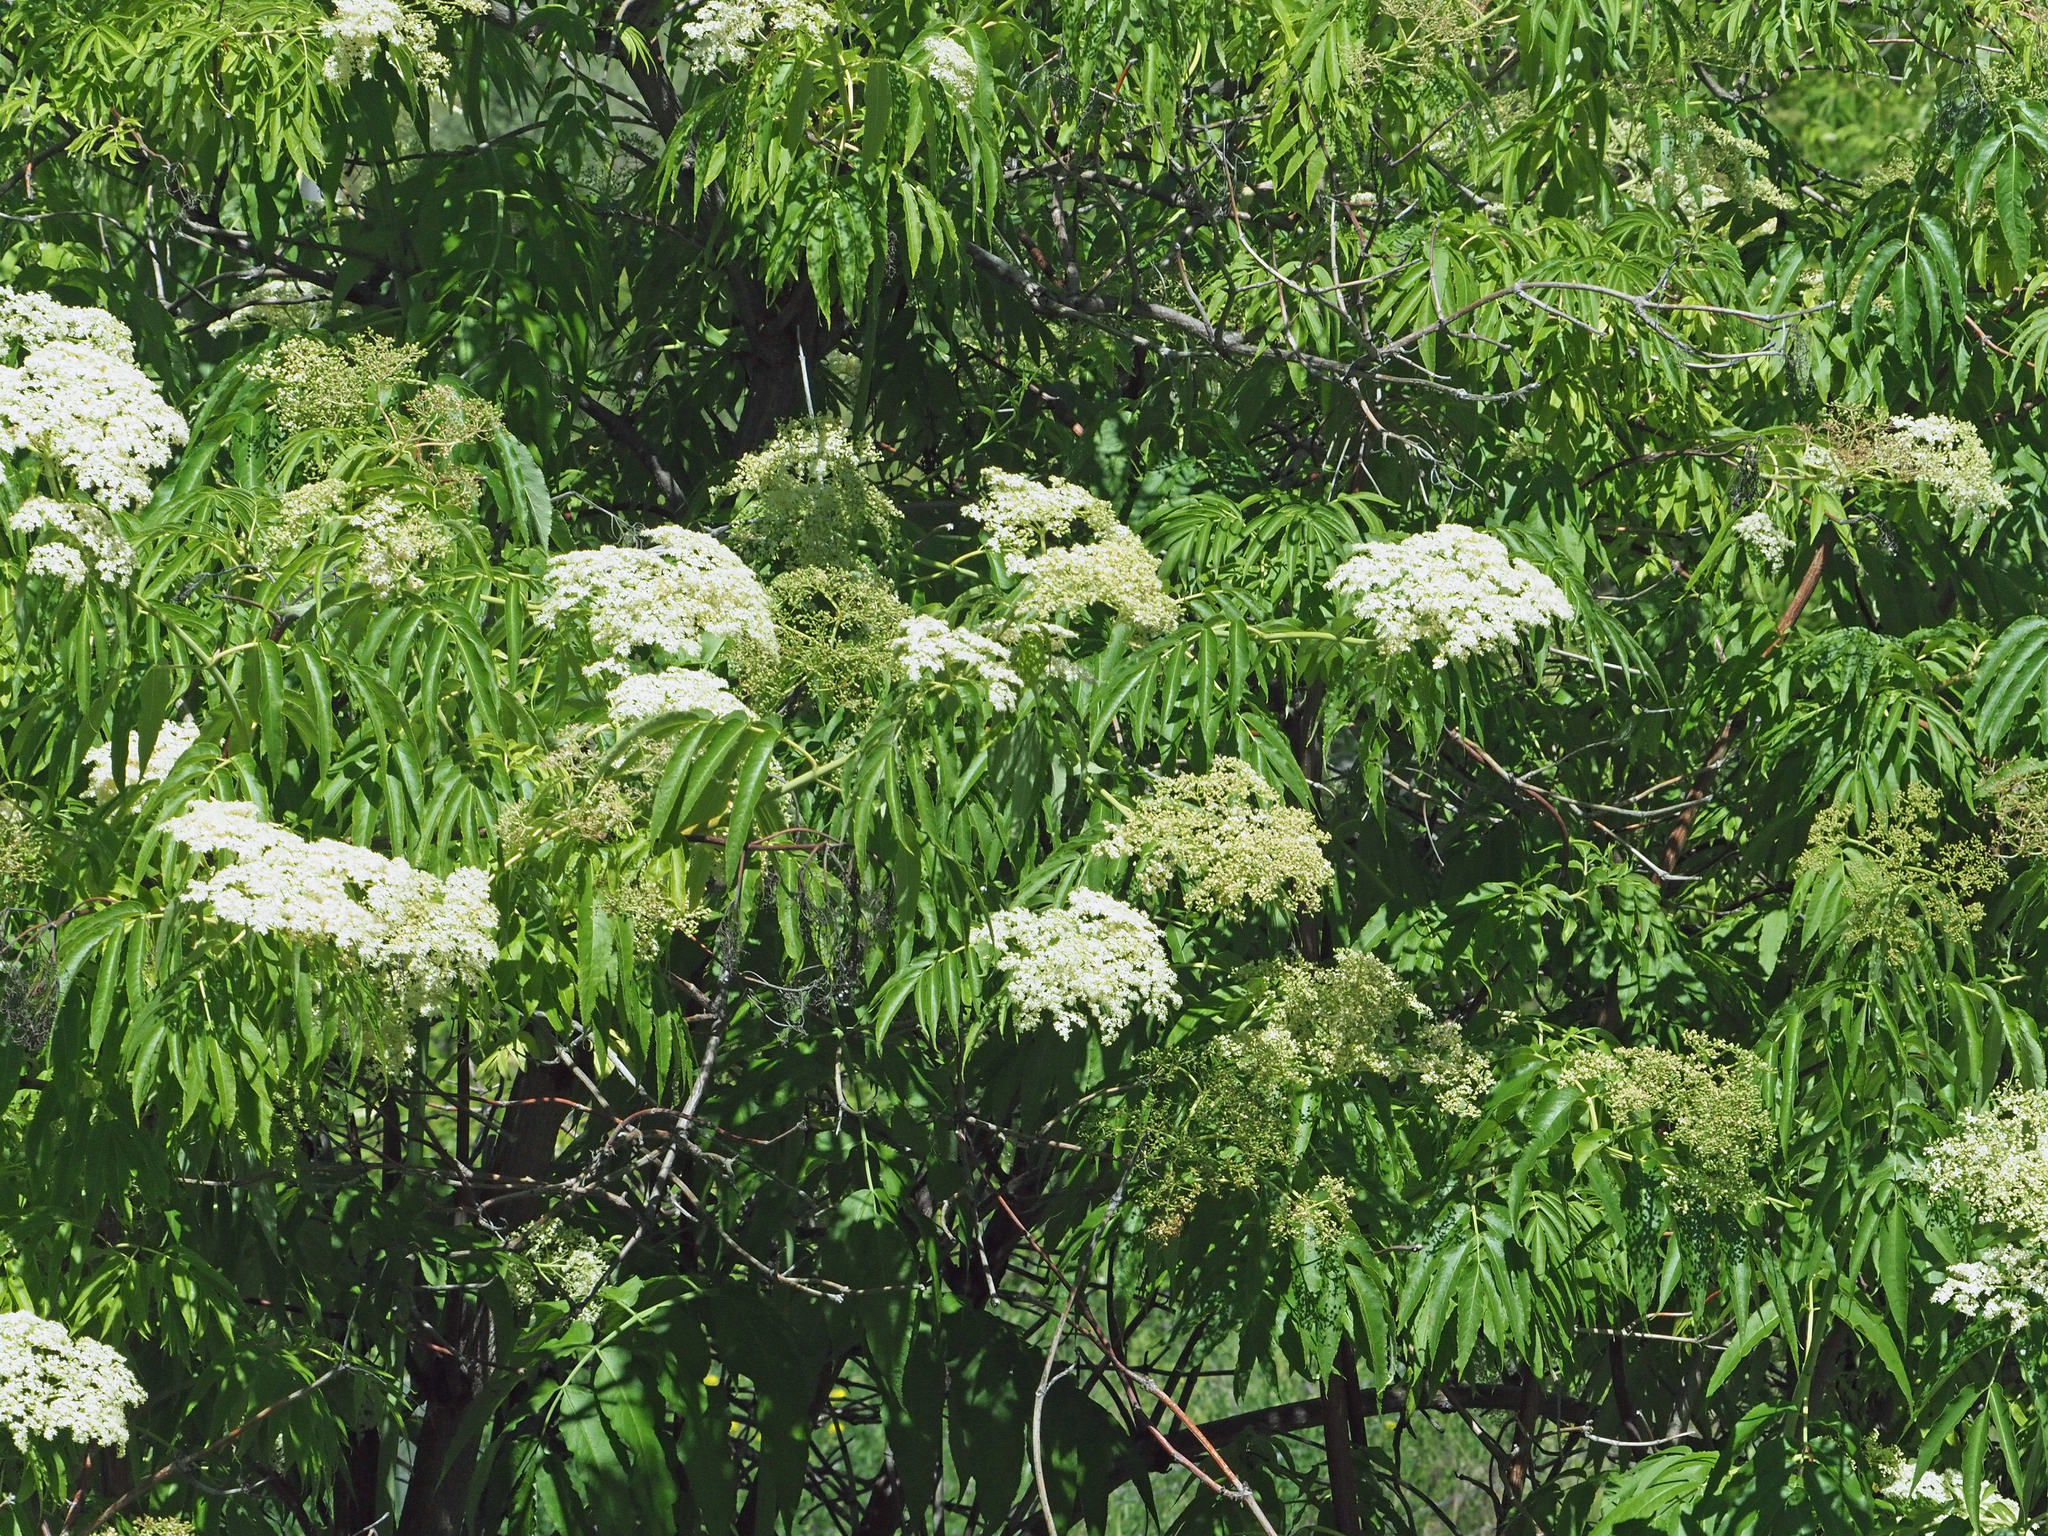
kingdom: Plantae
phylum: Tracheophyta
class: Magnoliopsida
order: Dipsacales
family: Viburnaceae
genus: Sambucus
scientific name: Sambucus cerulea
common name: Blue elder
